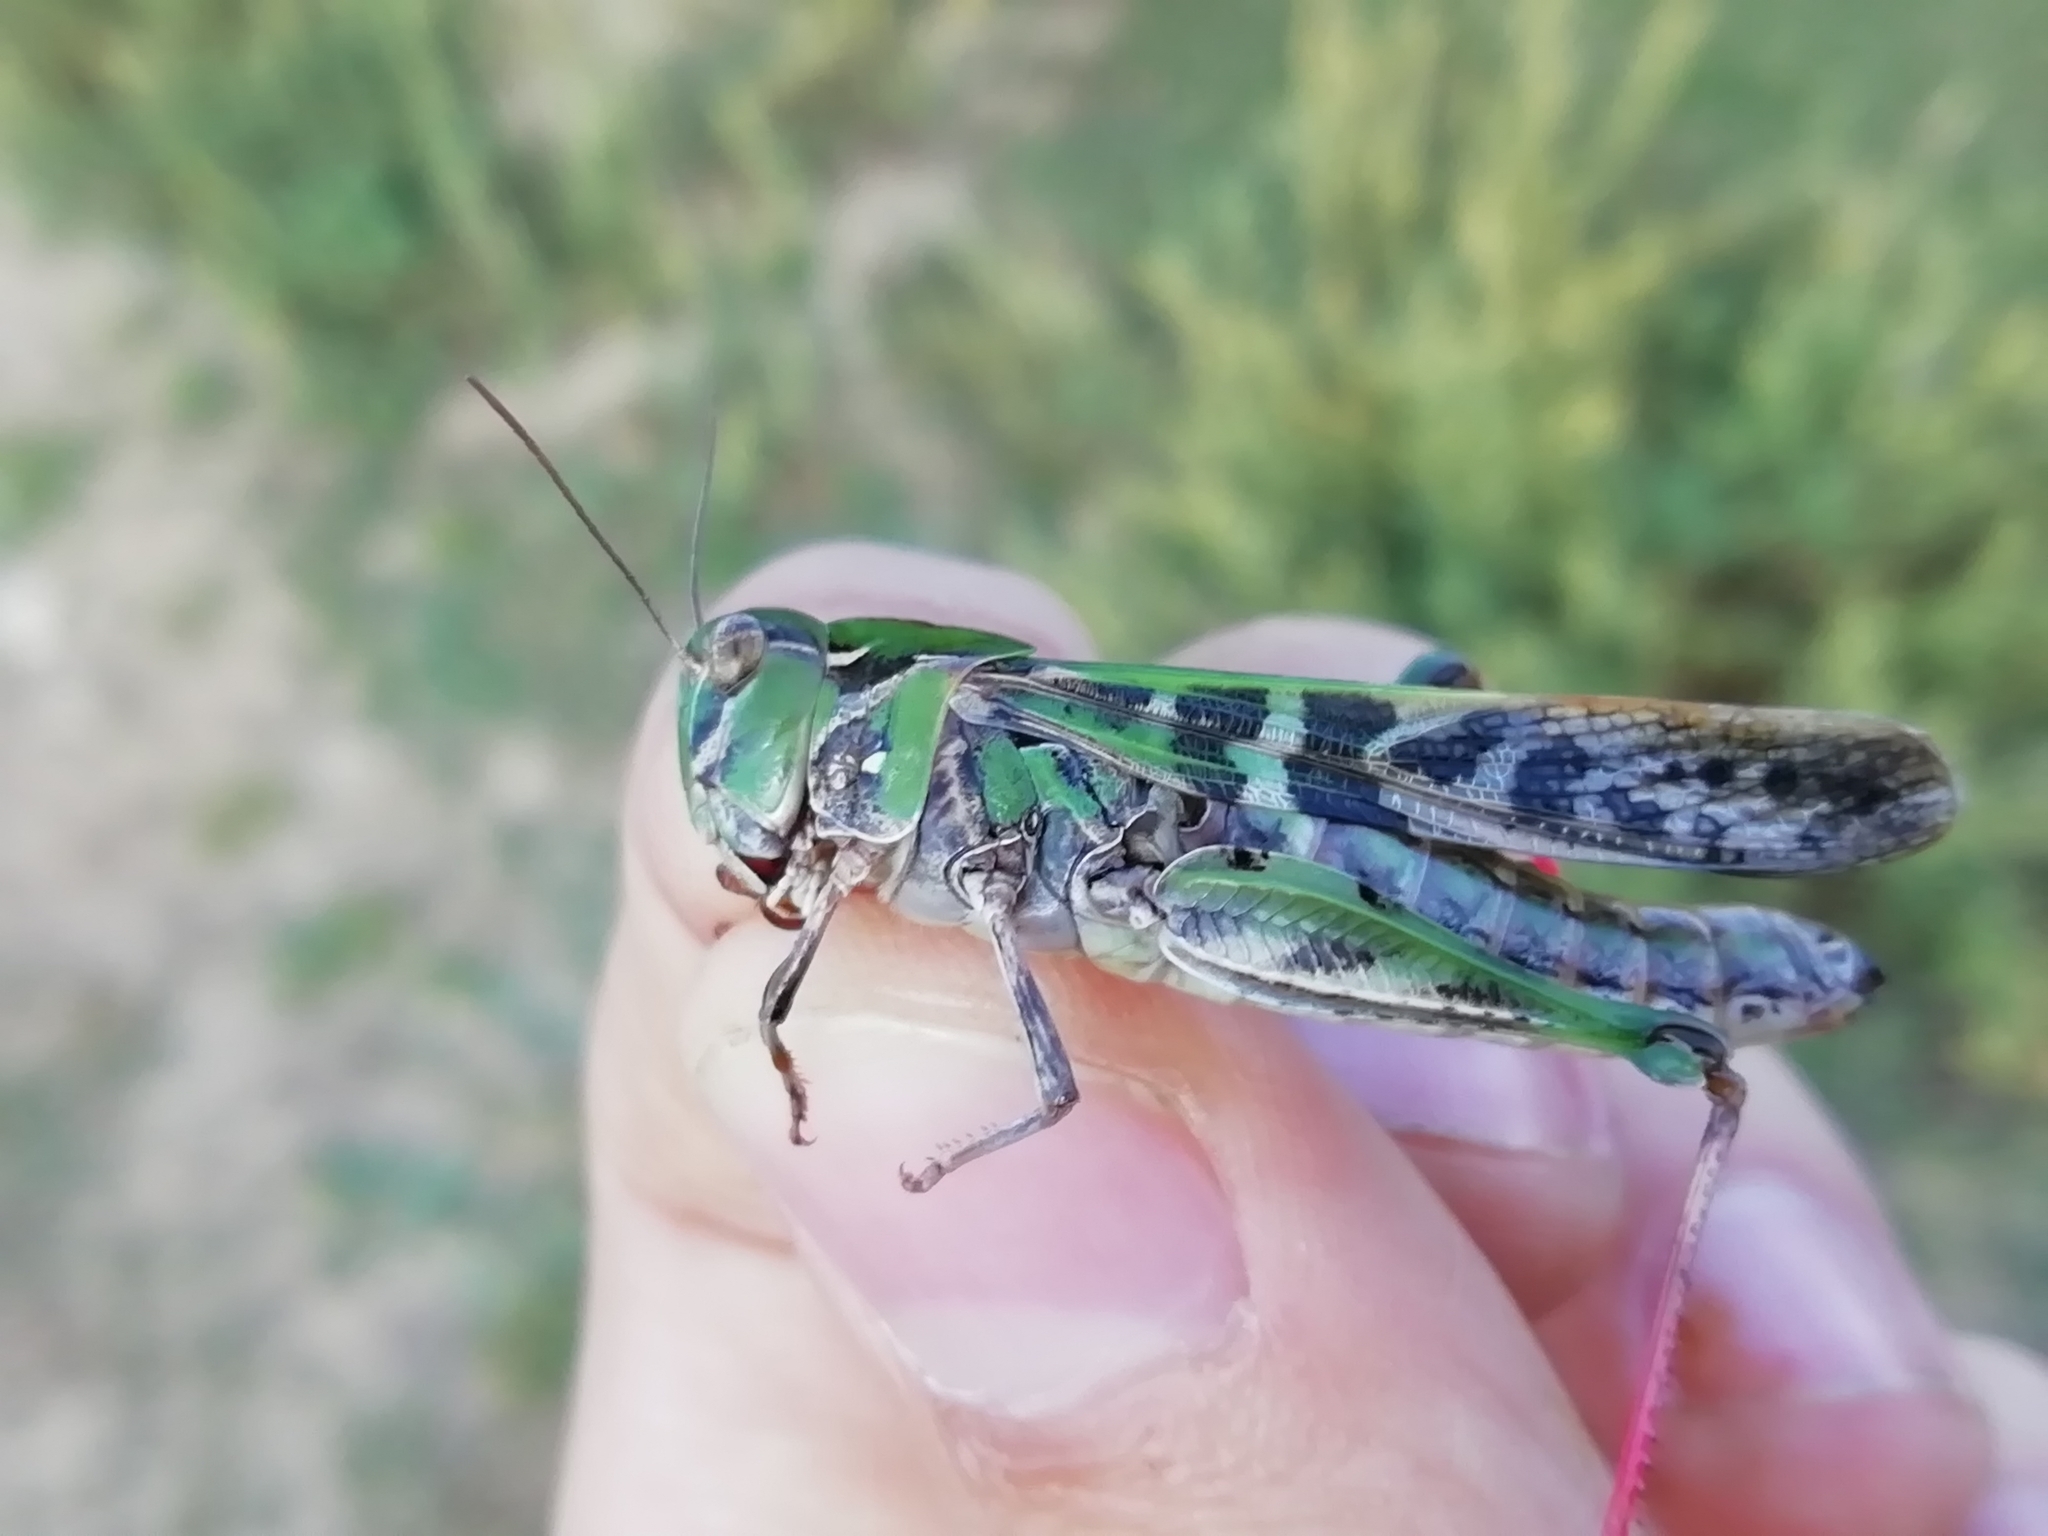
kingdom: Animalia
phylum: Arthropoda
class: Insecta
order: Orthoptera
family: Acrididae
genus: Oedaleus
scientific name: Oedaleus decorus
